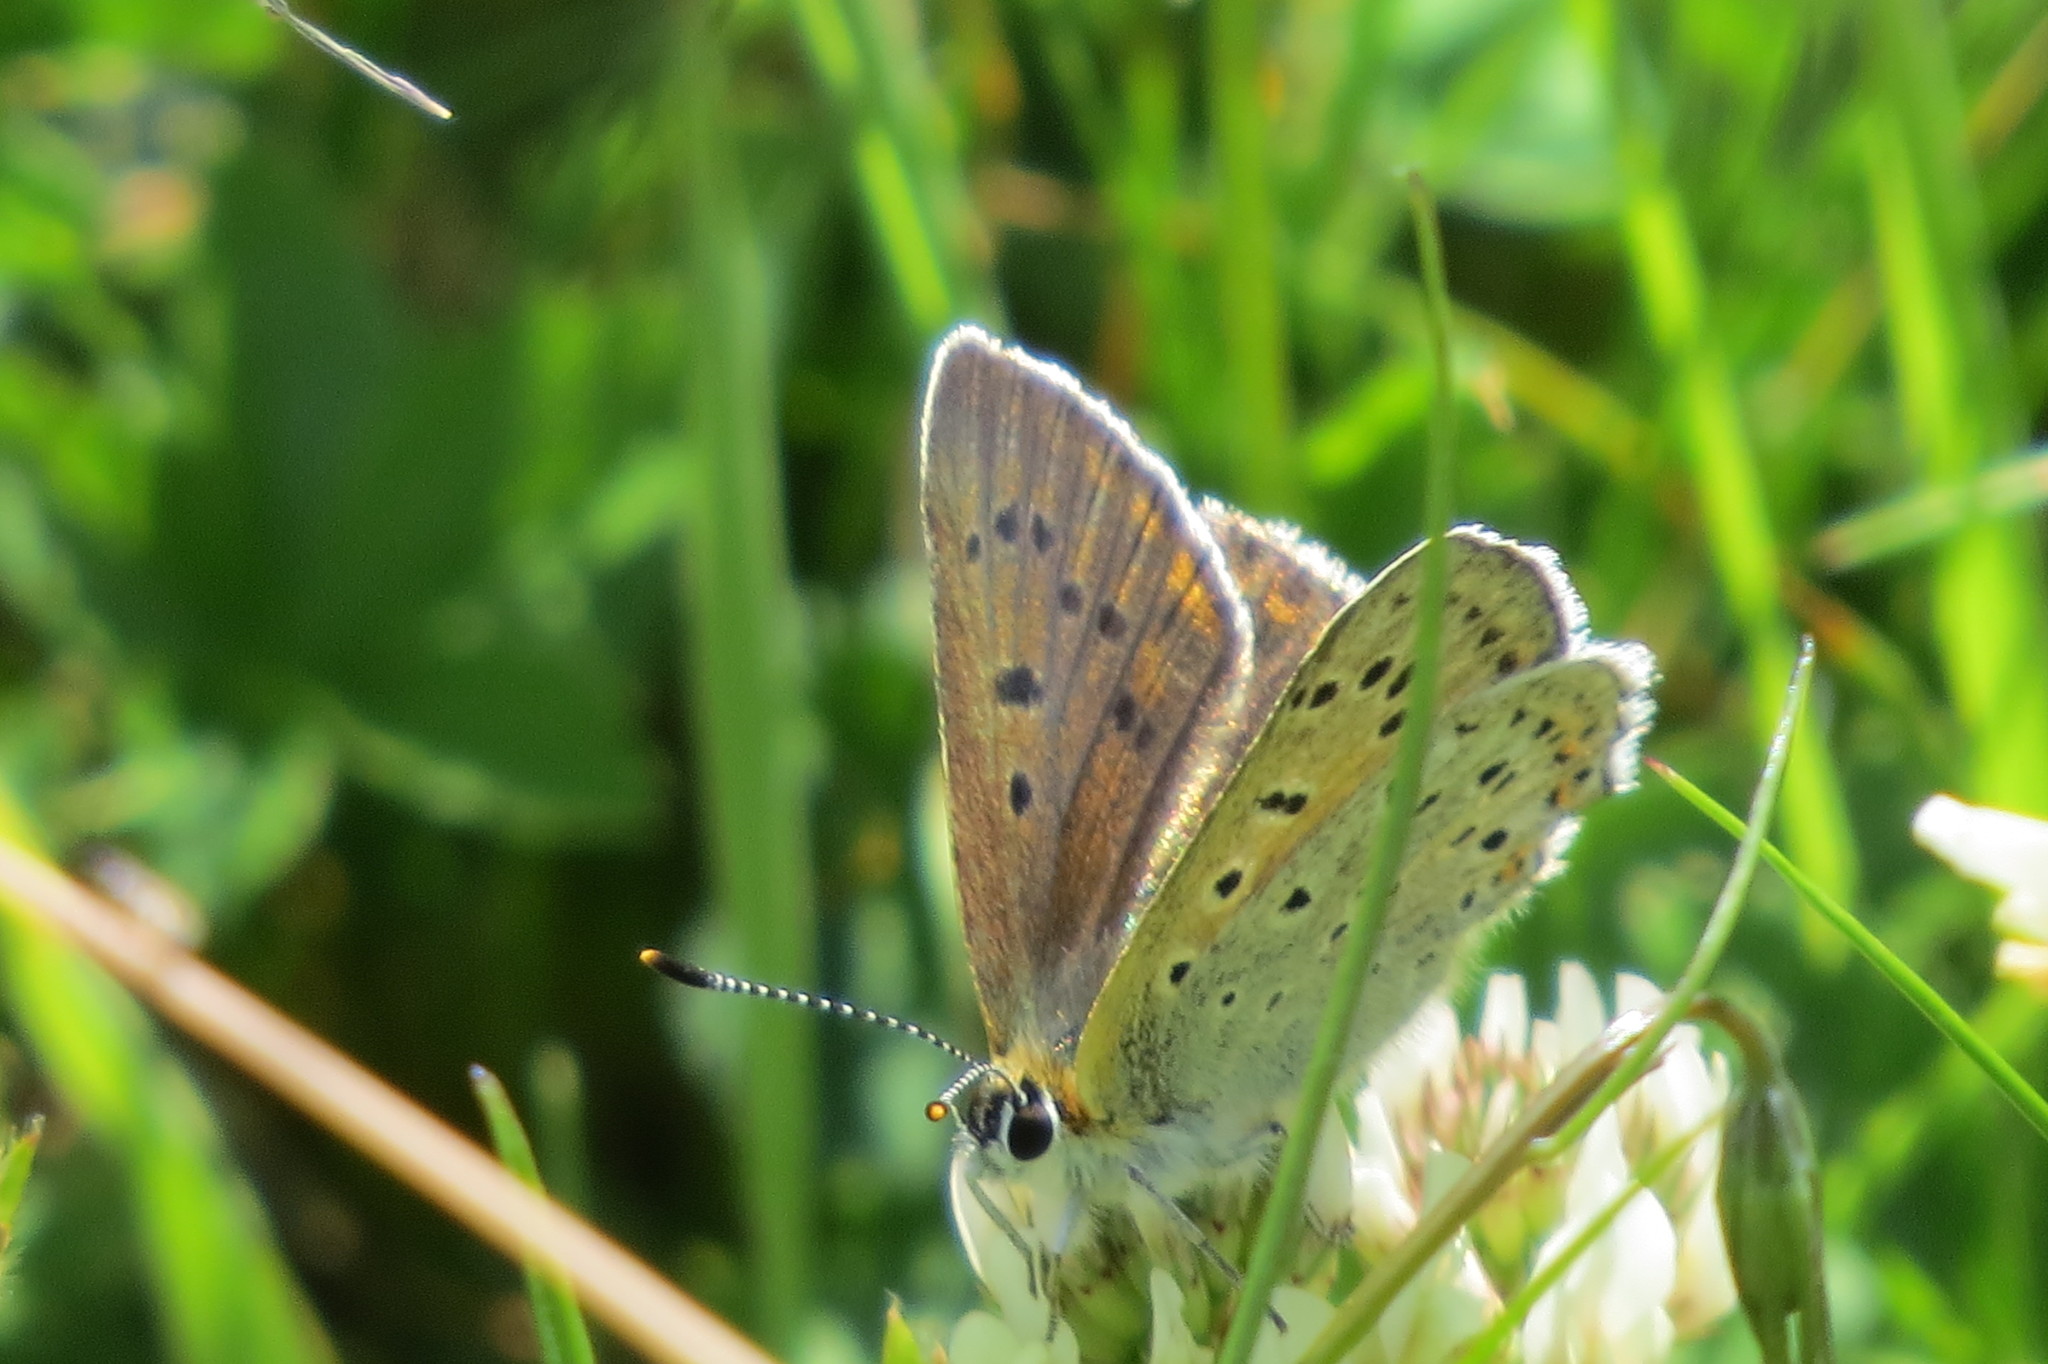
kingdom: Animalia
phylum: Arthropoda
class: Insecta
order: Lepidoptera
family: Lycaenidae
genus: Loweia
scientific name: Loweia tityrus
